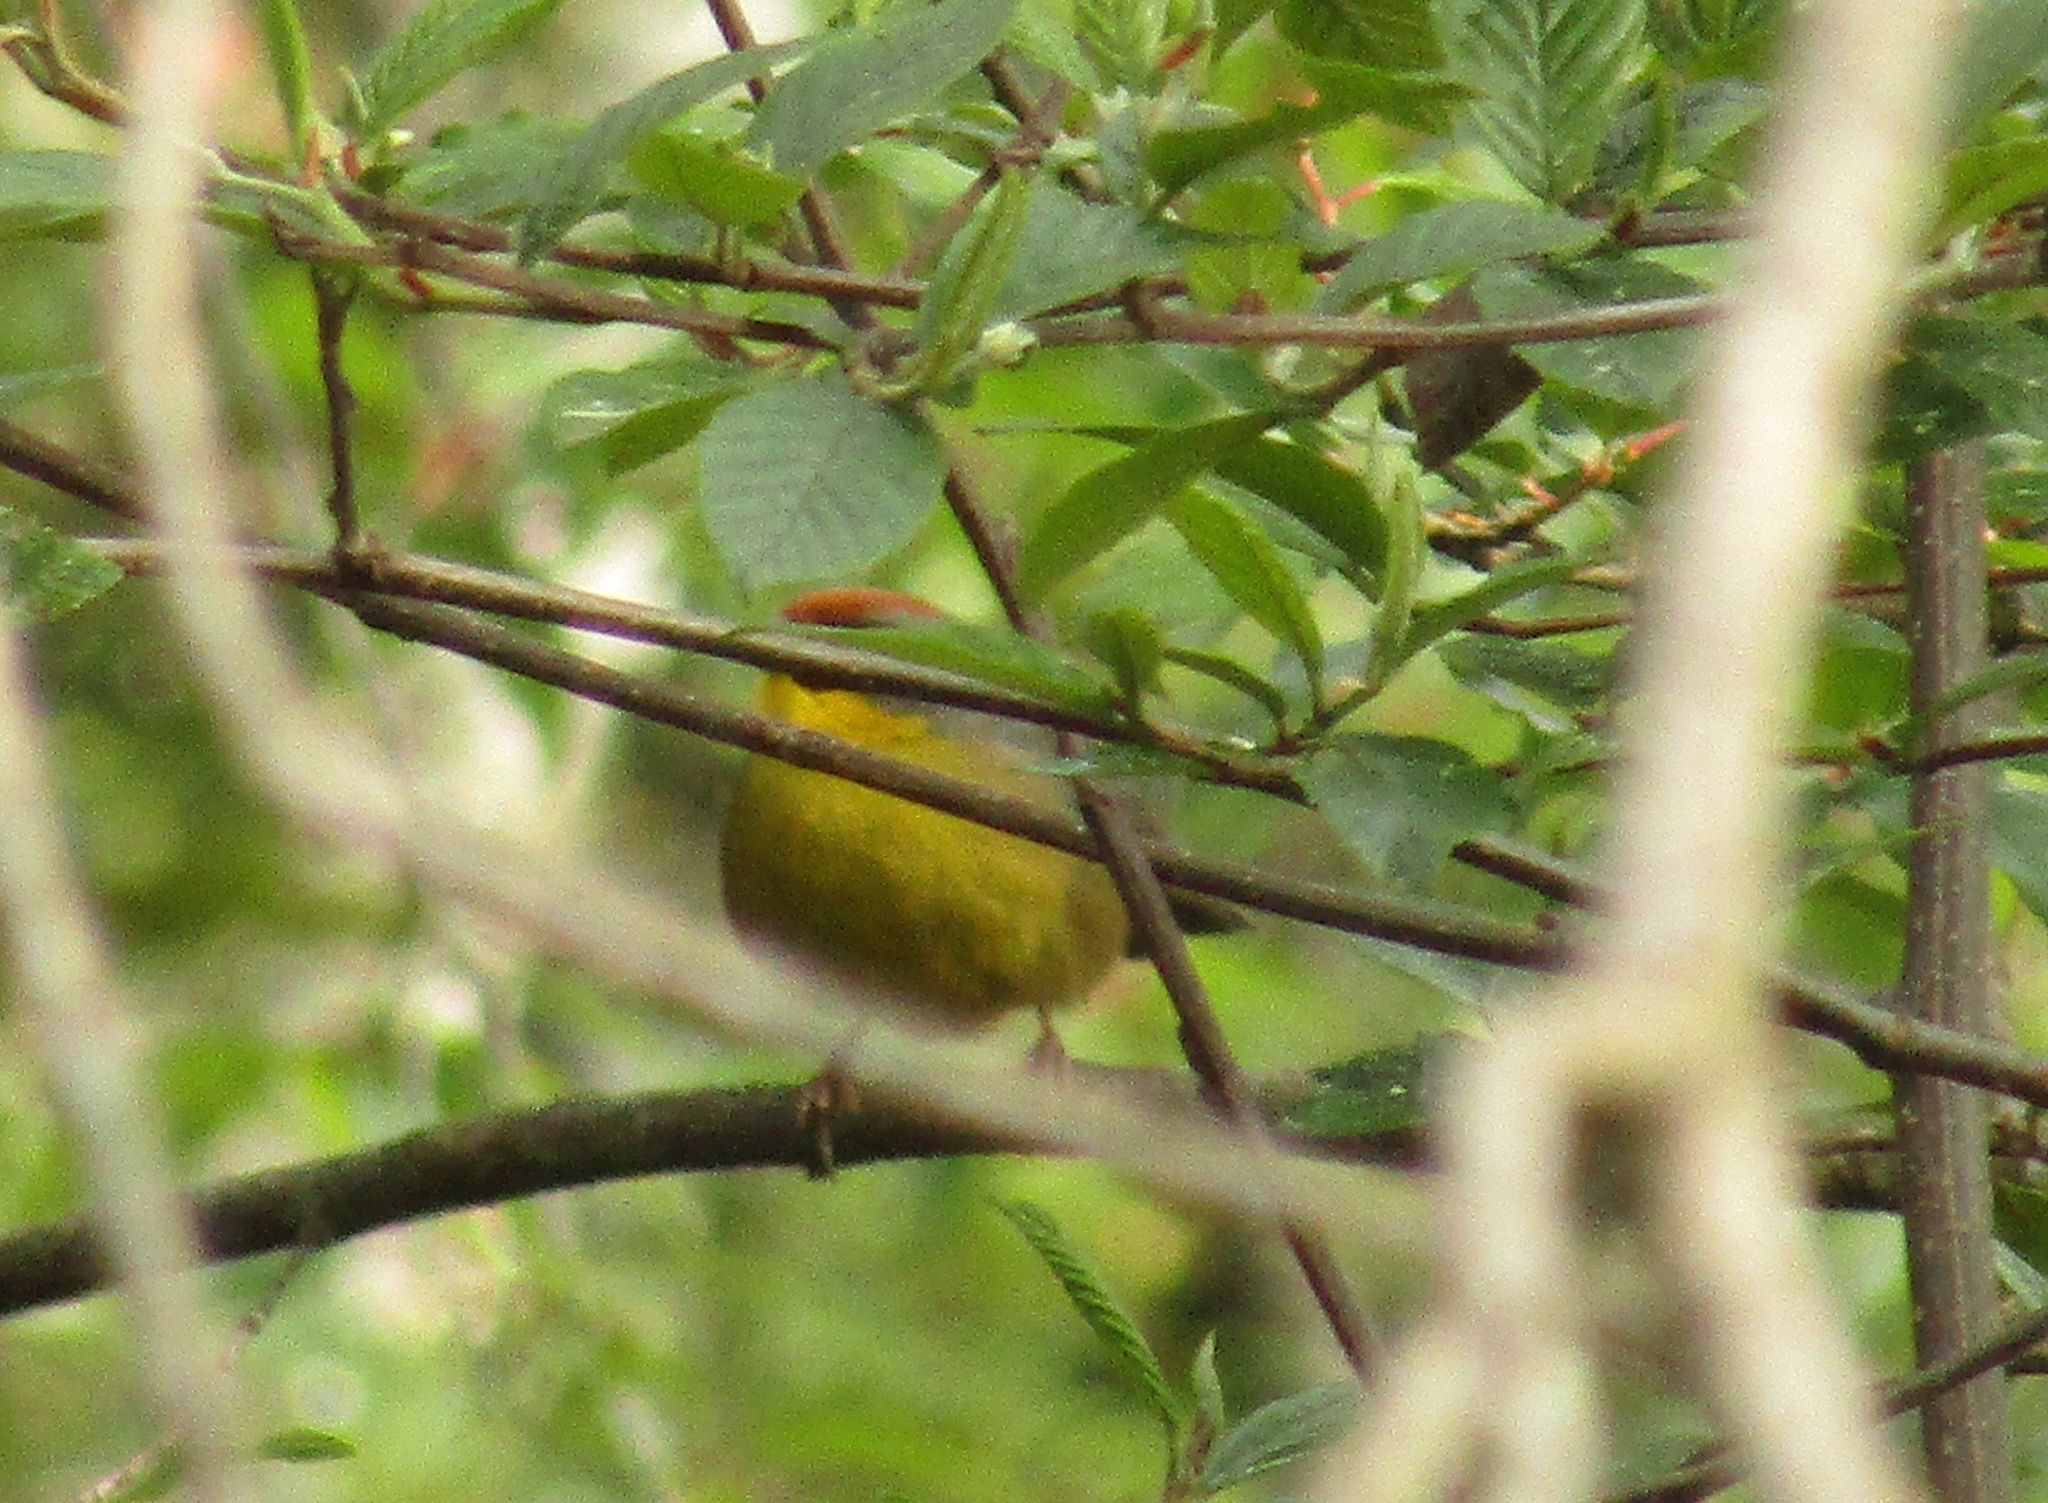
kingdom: Animalia
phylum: Chordata
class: Aves
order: Passeriformes
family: Passerellidae
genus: Atlapetes
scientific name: Atlapetes pileatus
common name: Rufous-capped brush-finch
